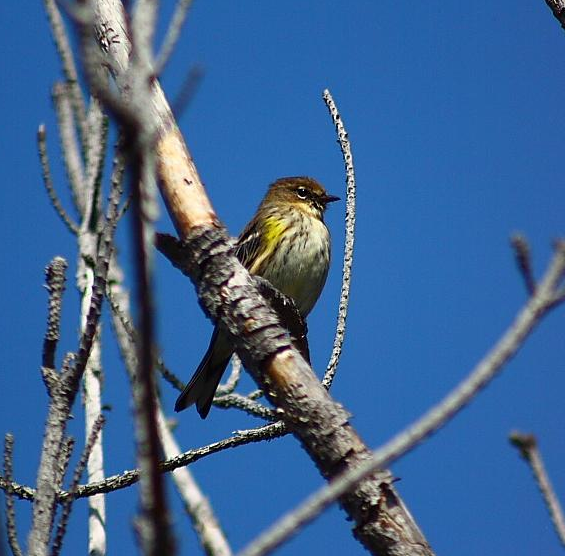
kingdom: Animalia
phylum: Chordata
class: Aves
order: Passeriformes
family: Parulidae
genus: Setophaga
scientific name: Setophaga coronata
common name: Myrtle warbler
